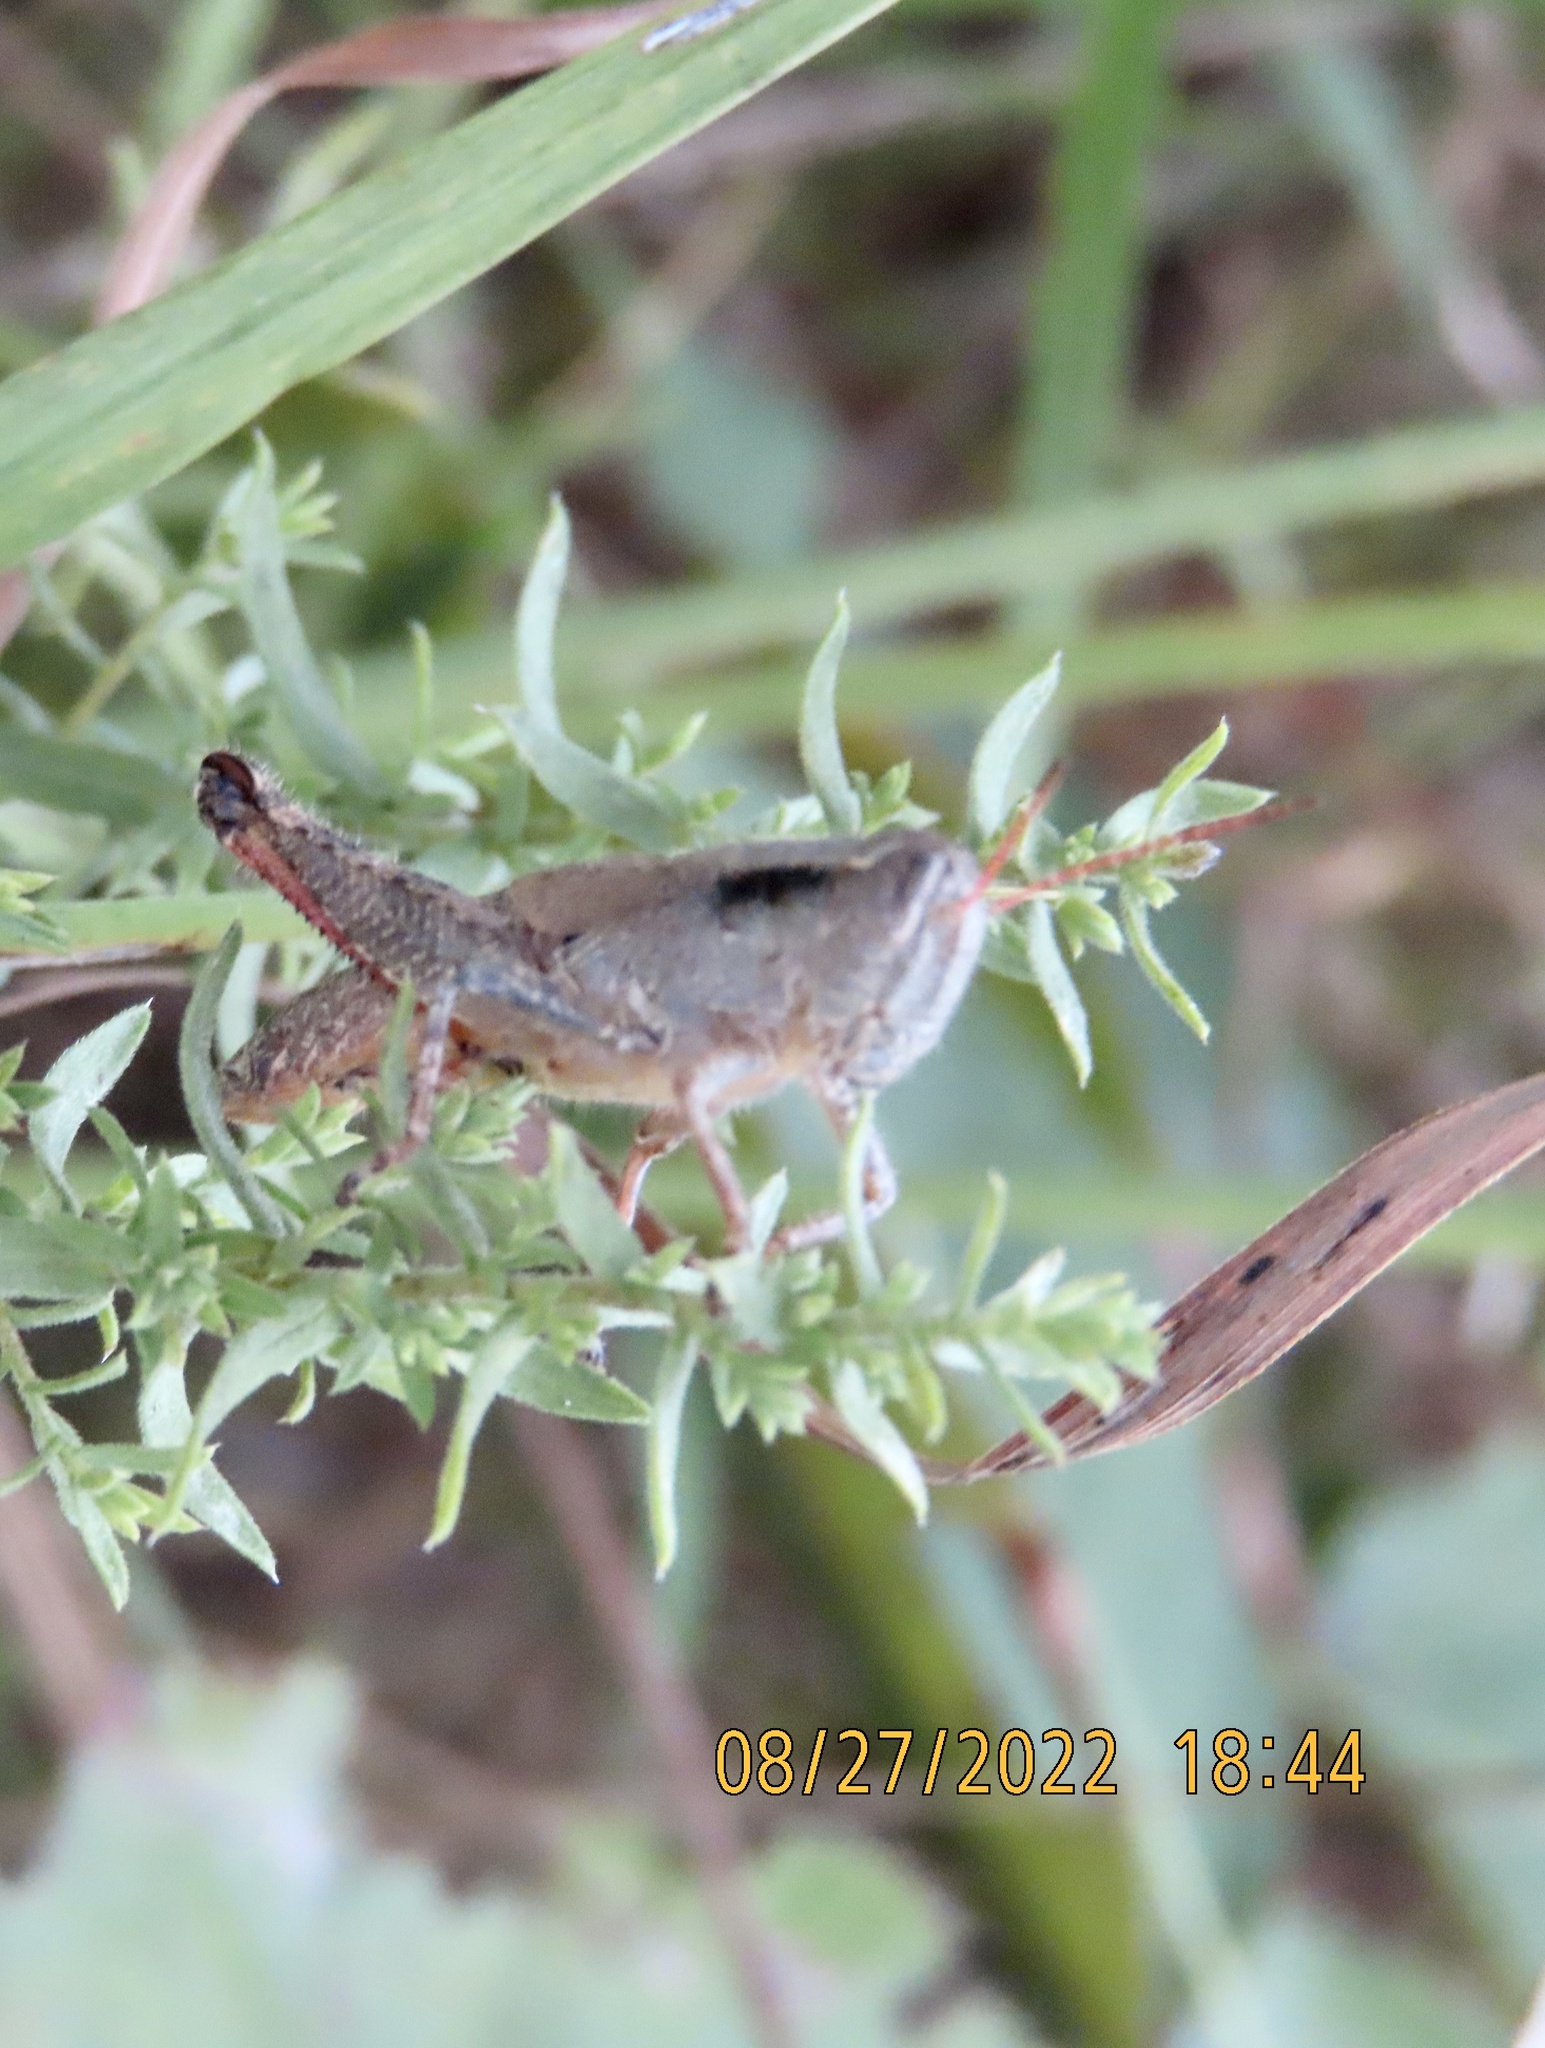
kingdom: Animalia
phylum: Arthropoda
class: Insecta
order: Orthoptera
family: Acrididae
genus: Melanoplus
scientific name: Melanoplus scudderi
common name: Scudder's short-winged locust
